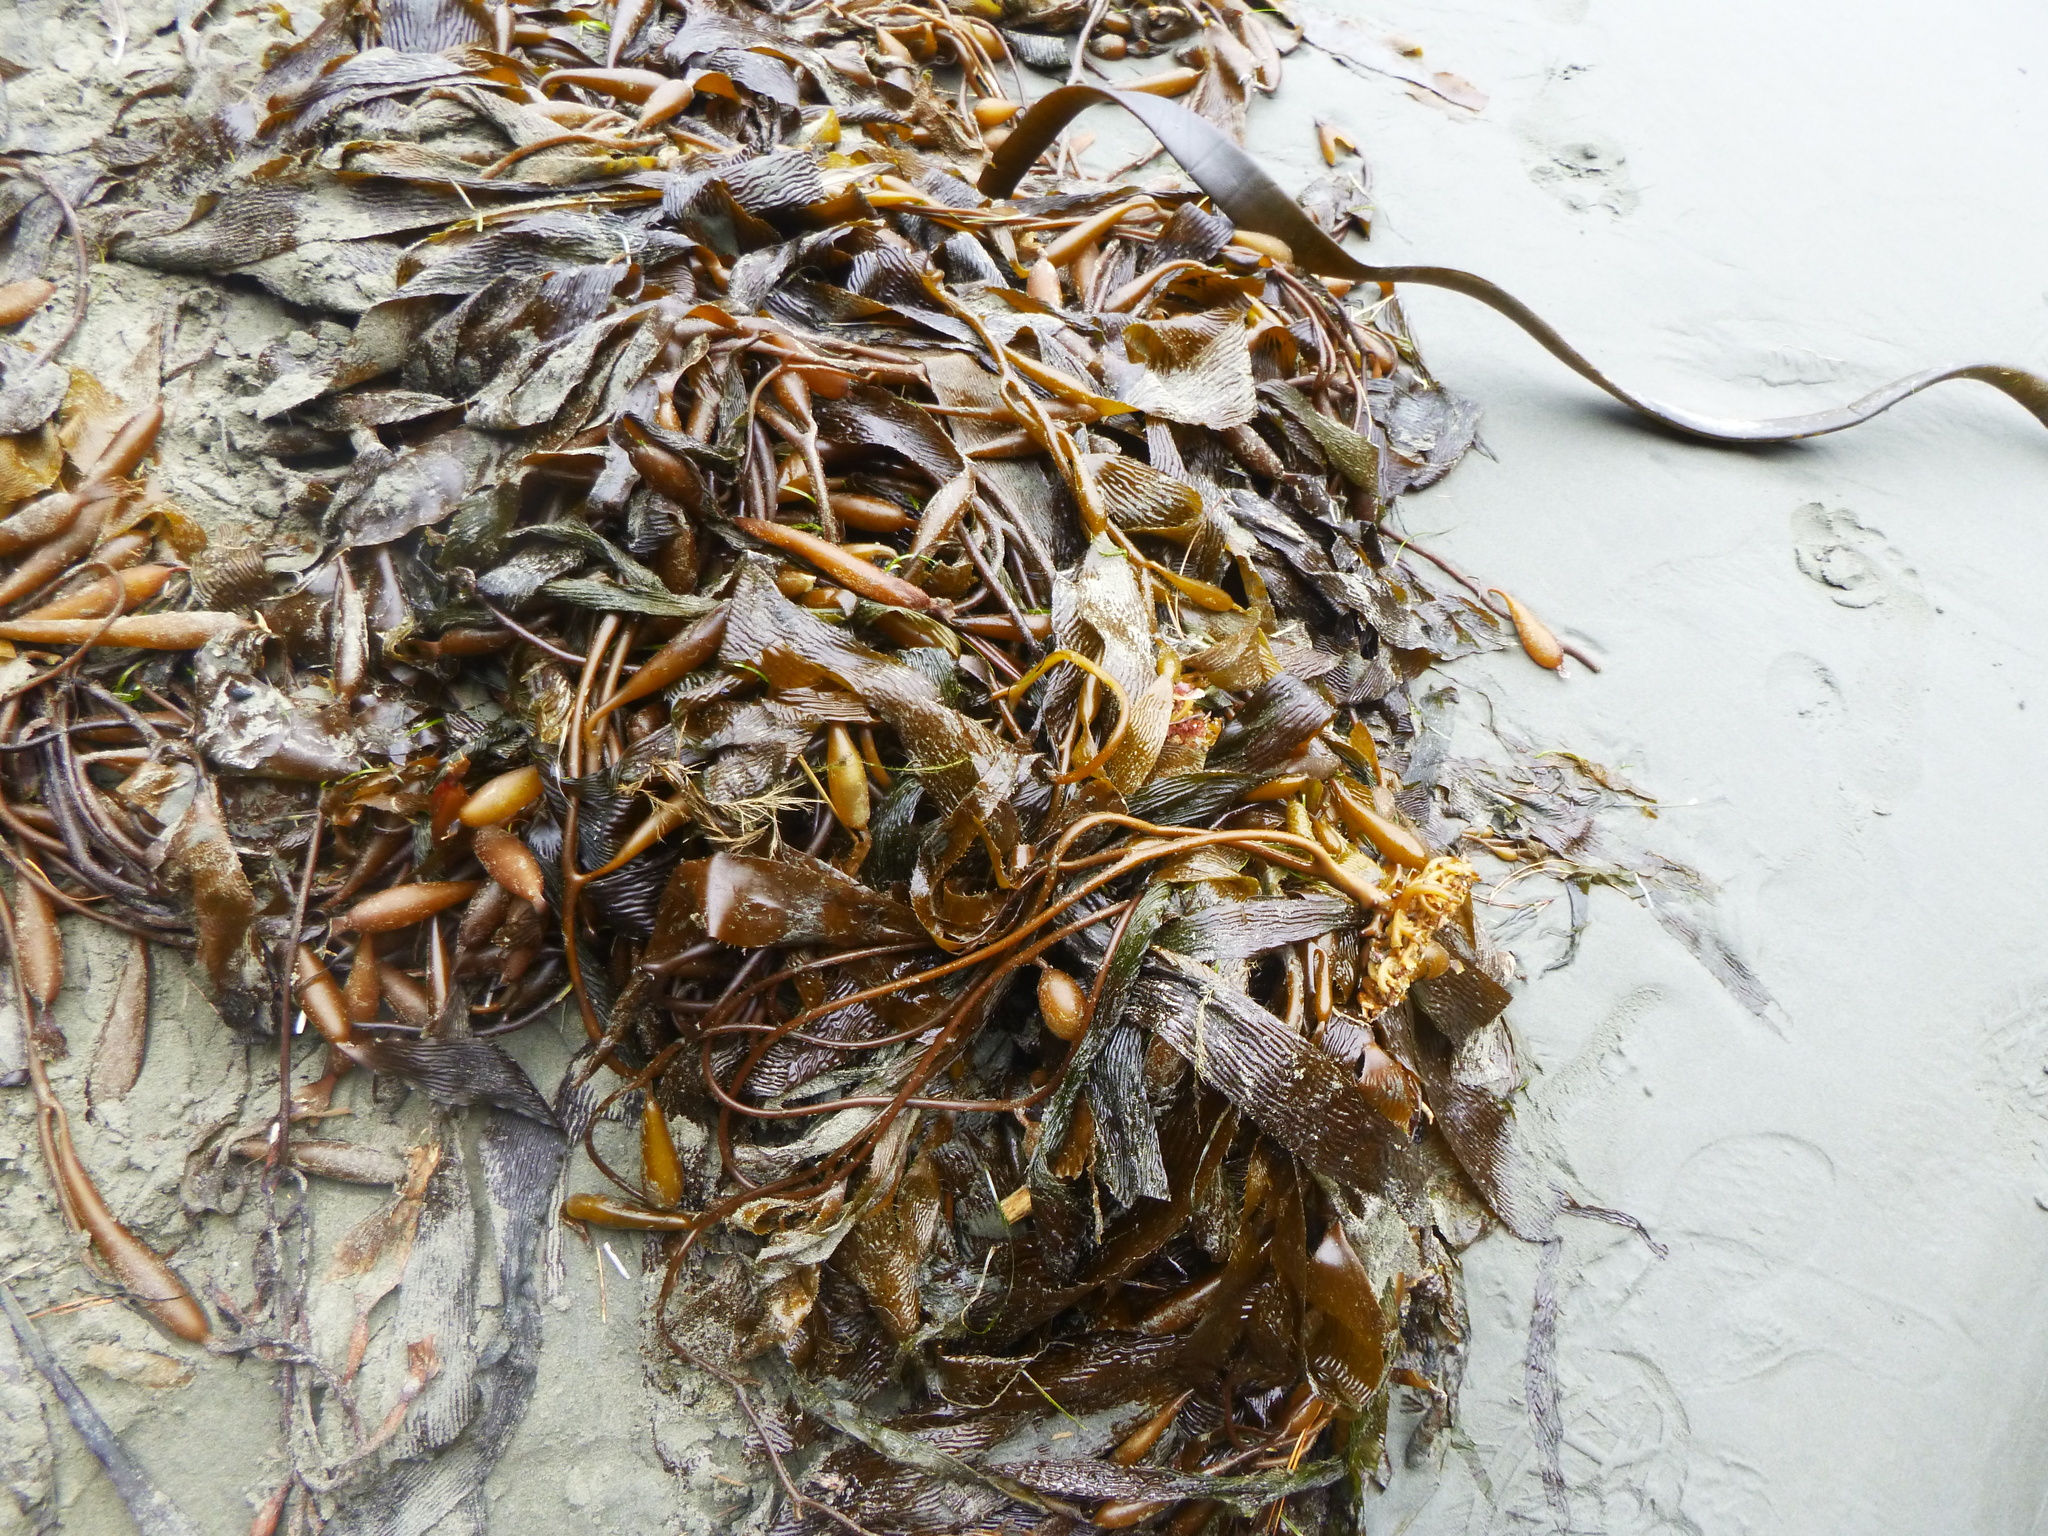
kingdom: Chromista
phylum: Ochrophyta
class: Phaeophyceae
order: Laminariales
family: Laminariaceae
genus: Macrocystis
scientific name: Macrocystis pyrifera
